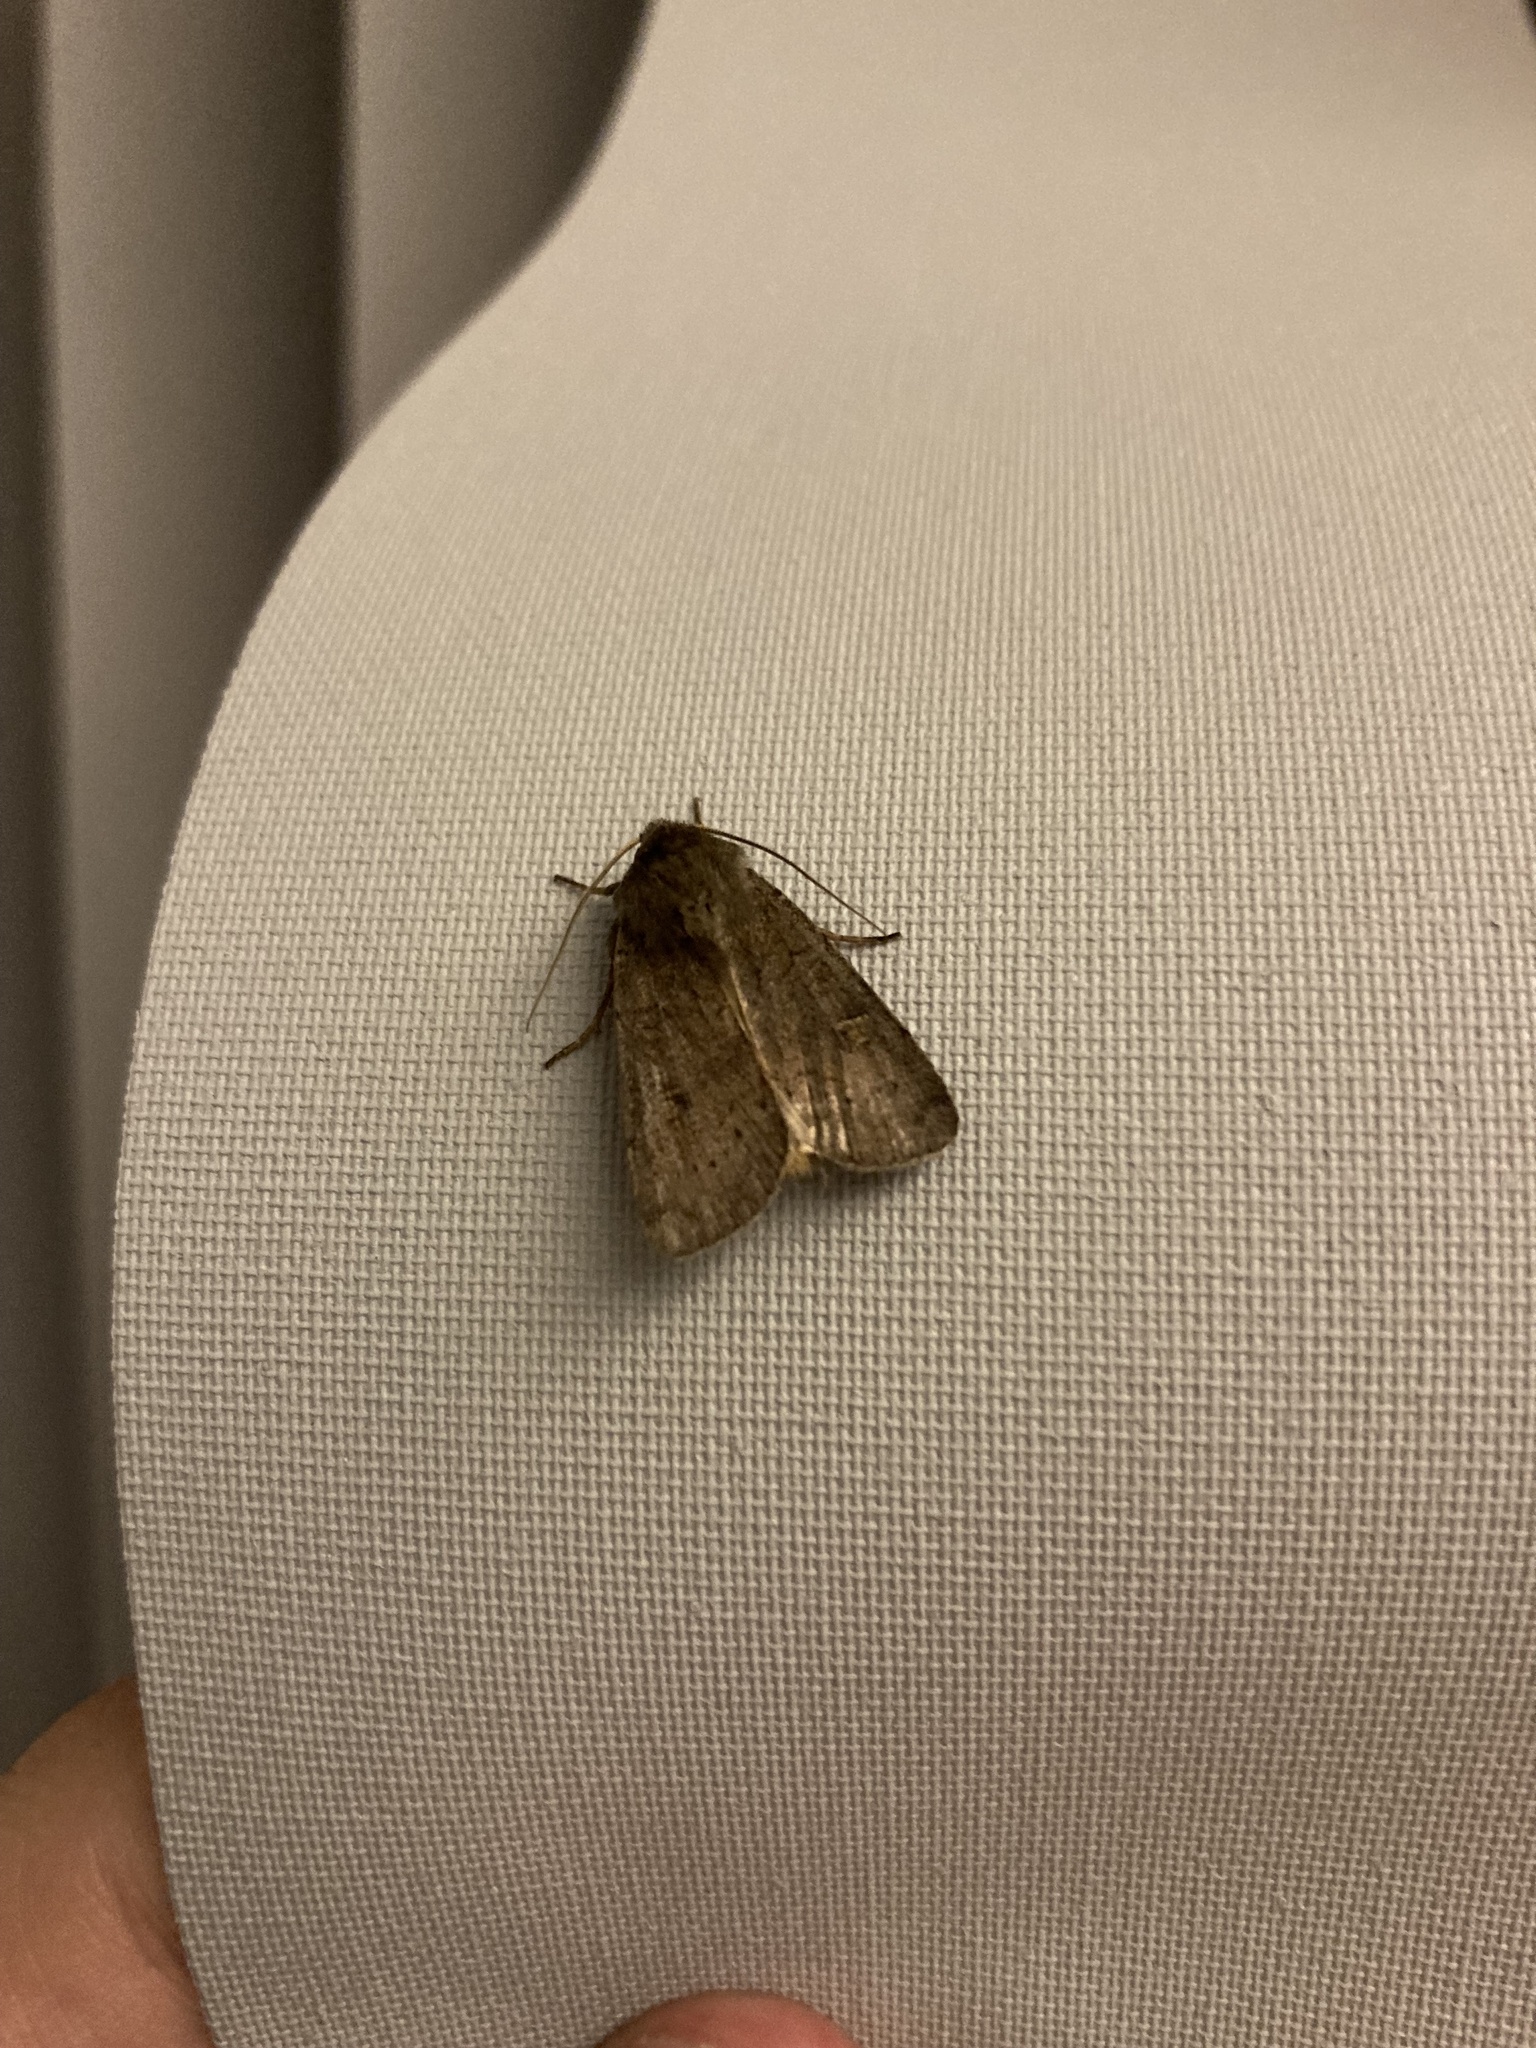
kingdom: Animalia
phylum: Arthropoda
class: Insecta
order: Lepidoptera
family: Noctuidae
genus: Xestia
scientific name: Xestia xanthographa
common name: Square-spot rustic
